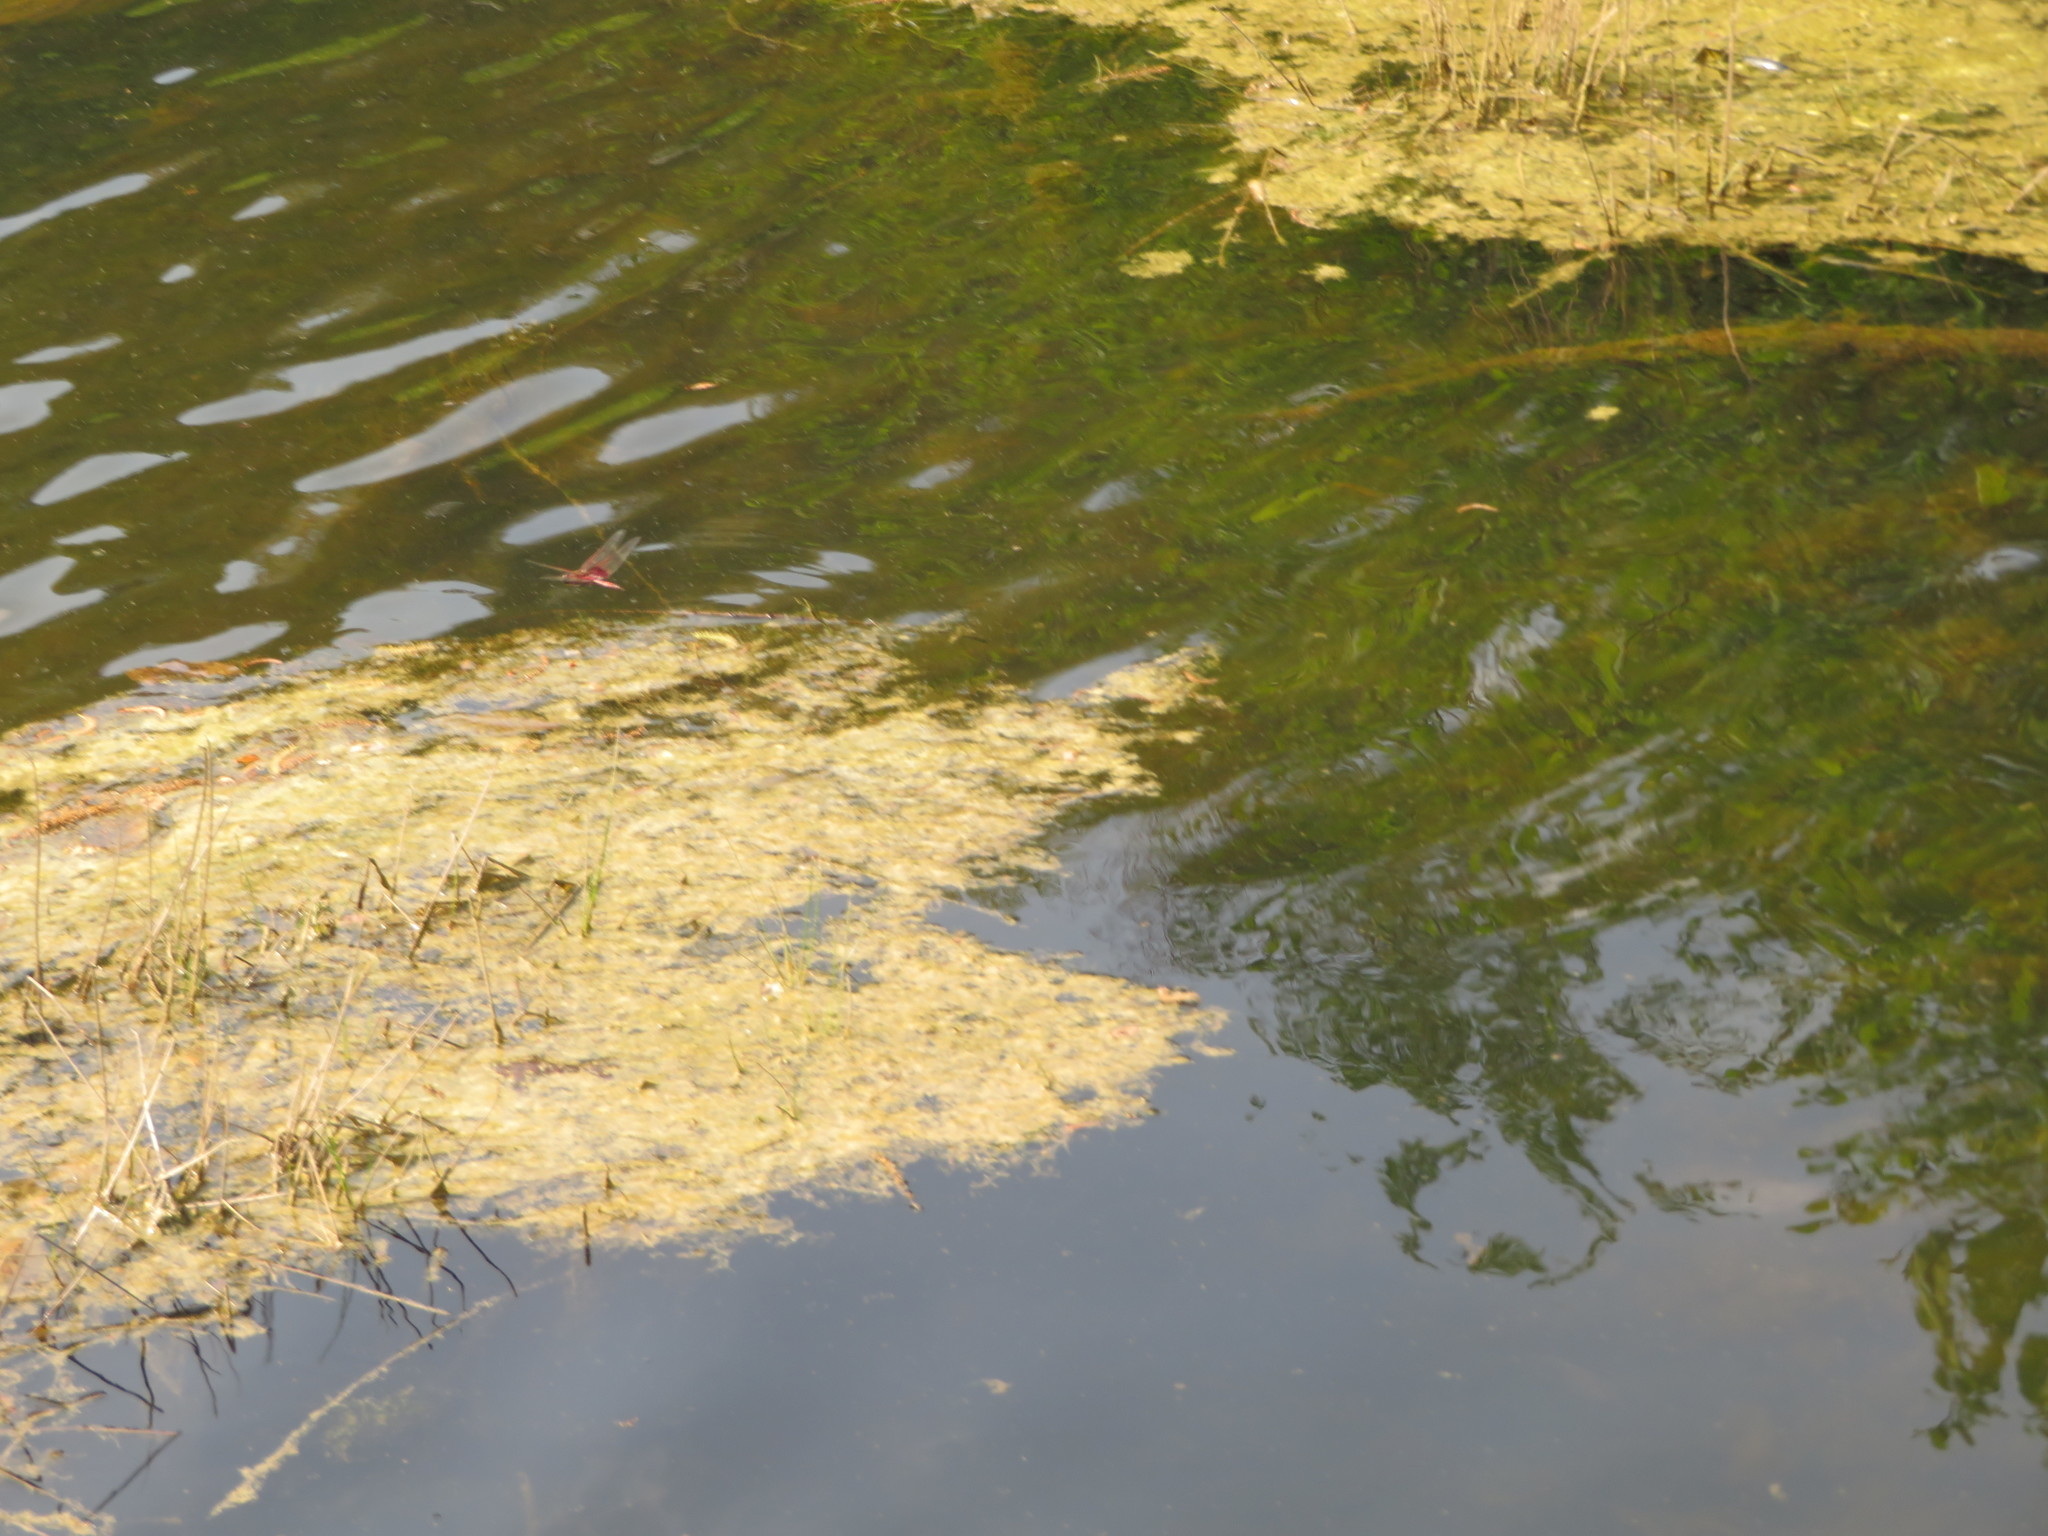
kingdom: Animalia
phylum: Arthropoda
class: Insecta
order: Odonata
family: Libellulidae
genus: Tramea
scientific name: Tramea carolina
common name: Carolina saddlebags
